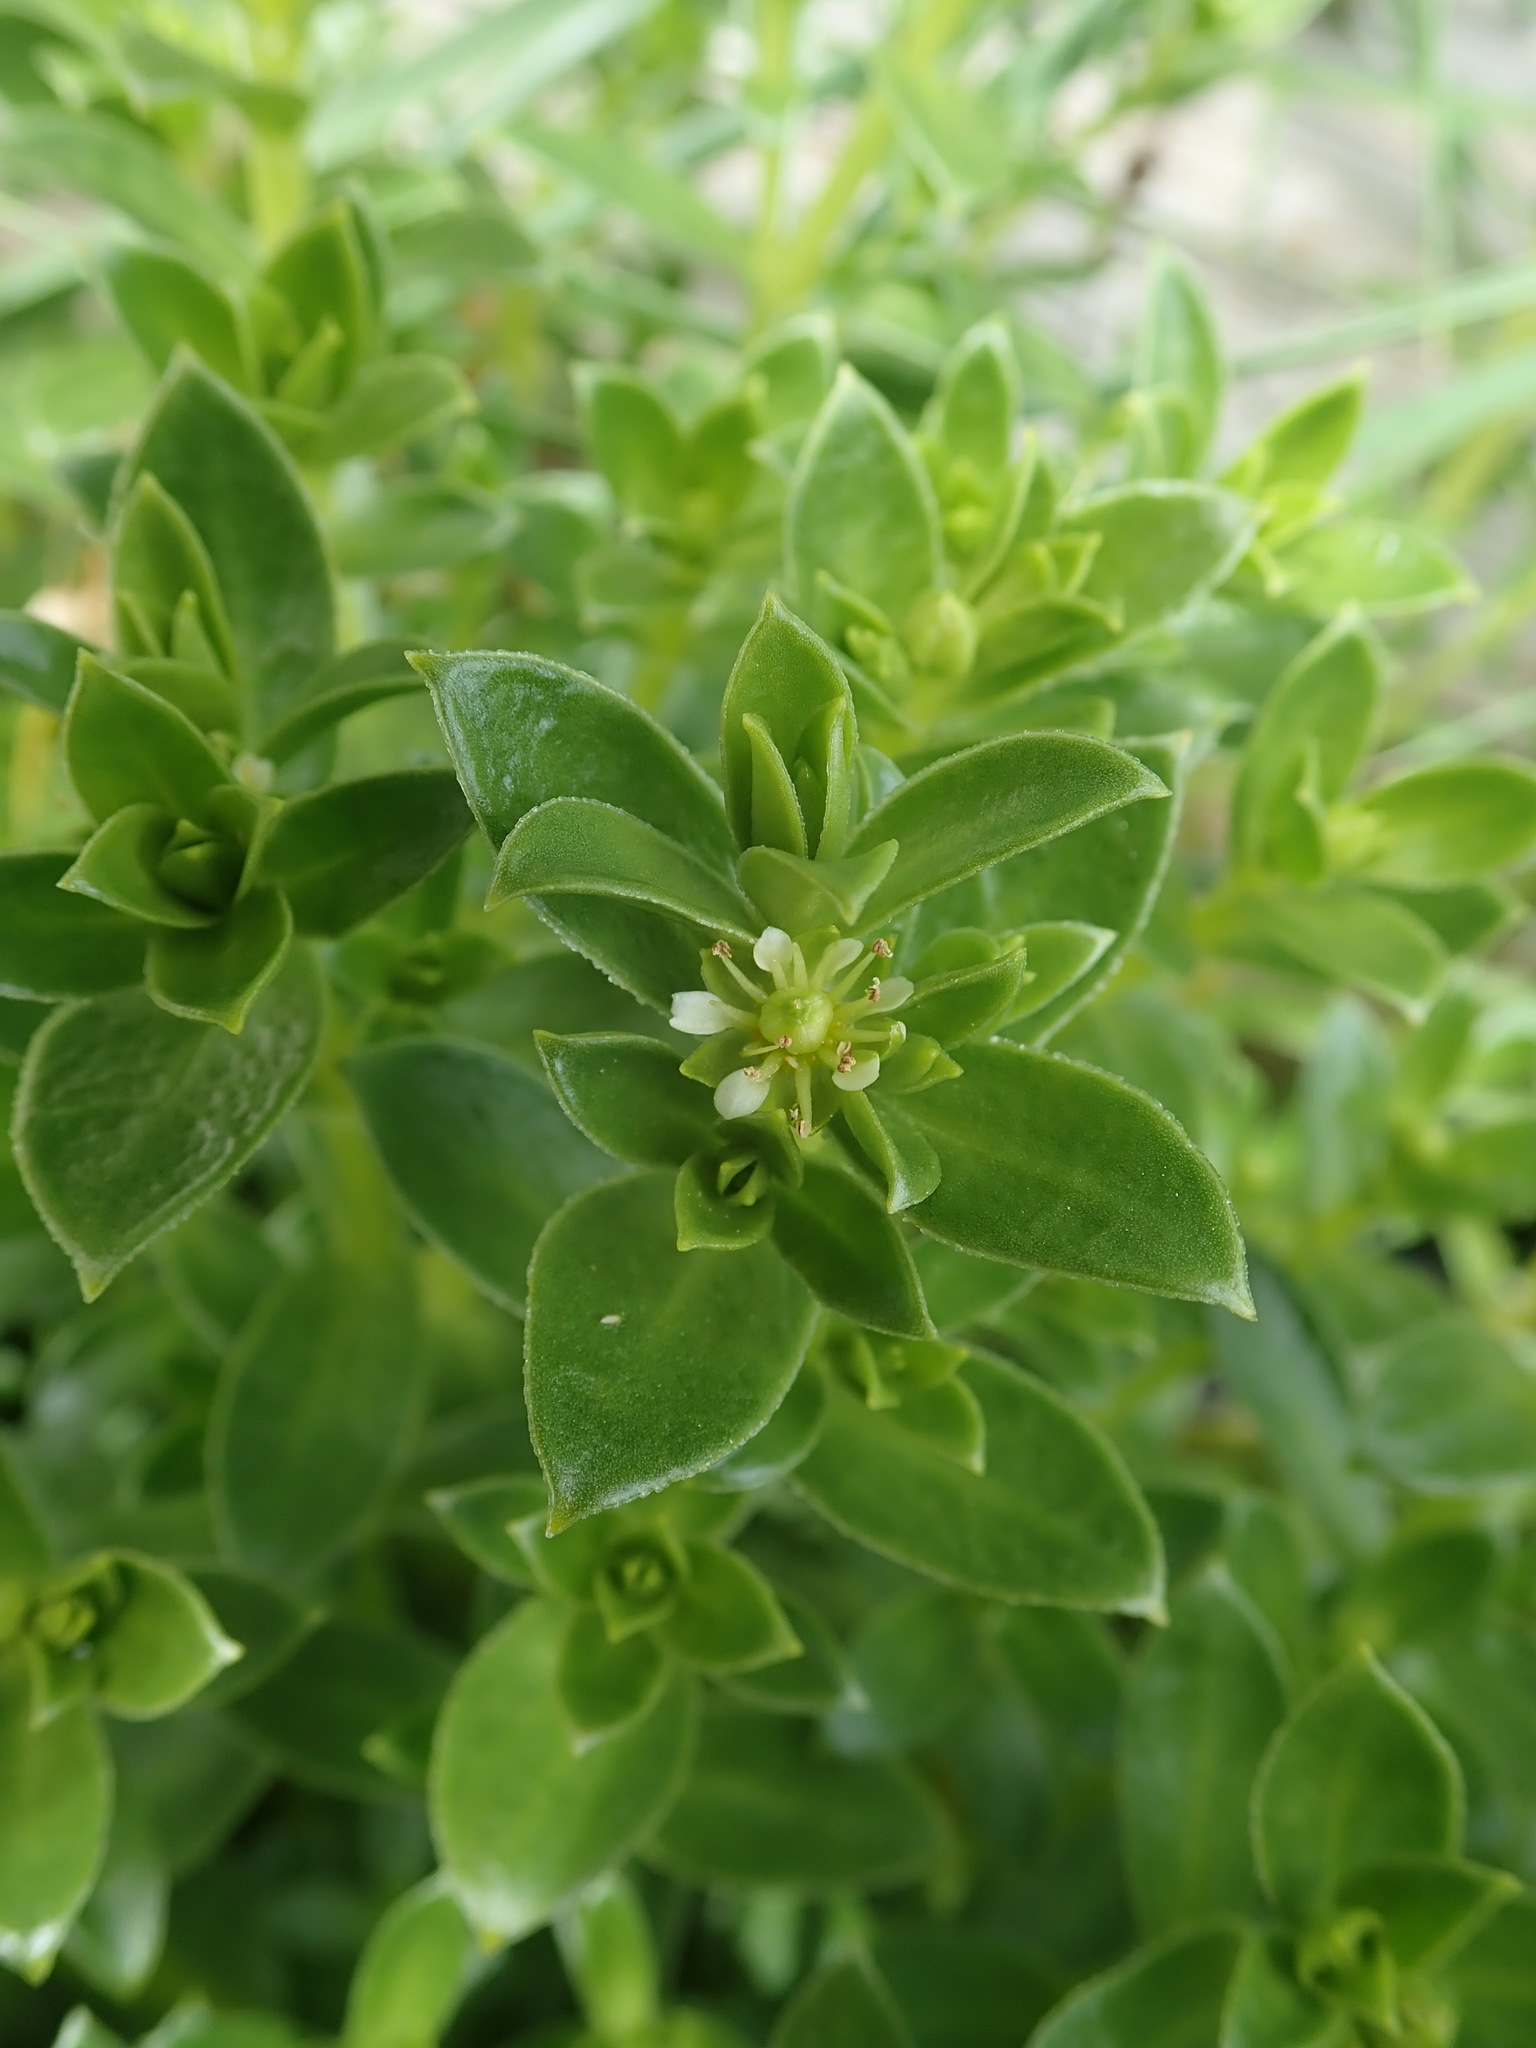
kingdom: Plantae
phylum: Tracheophyta
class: Magnoliopsida
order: Caryophyllales
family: Caryophyllaceae
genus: Honckenya
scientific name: Honckenya peploides
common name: Sea sandwort
